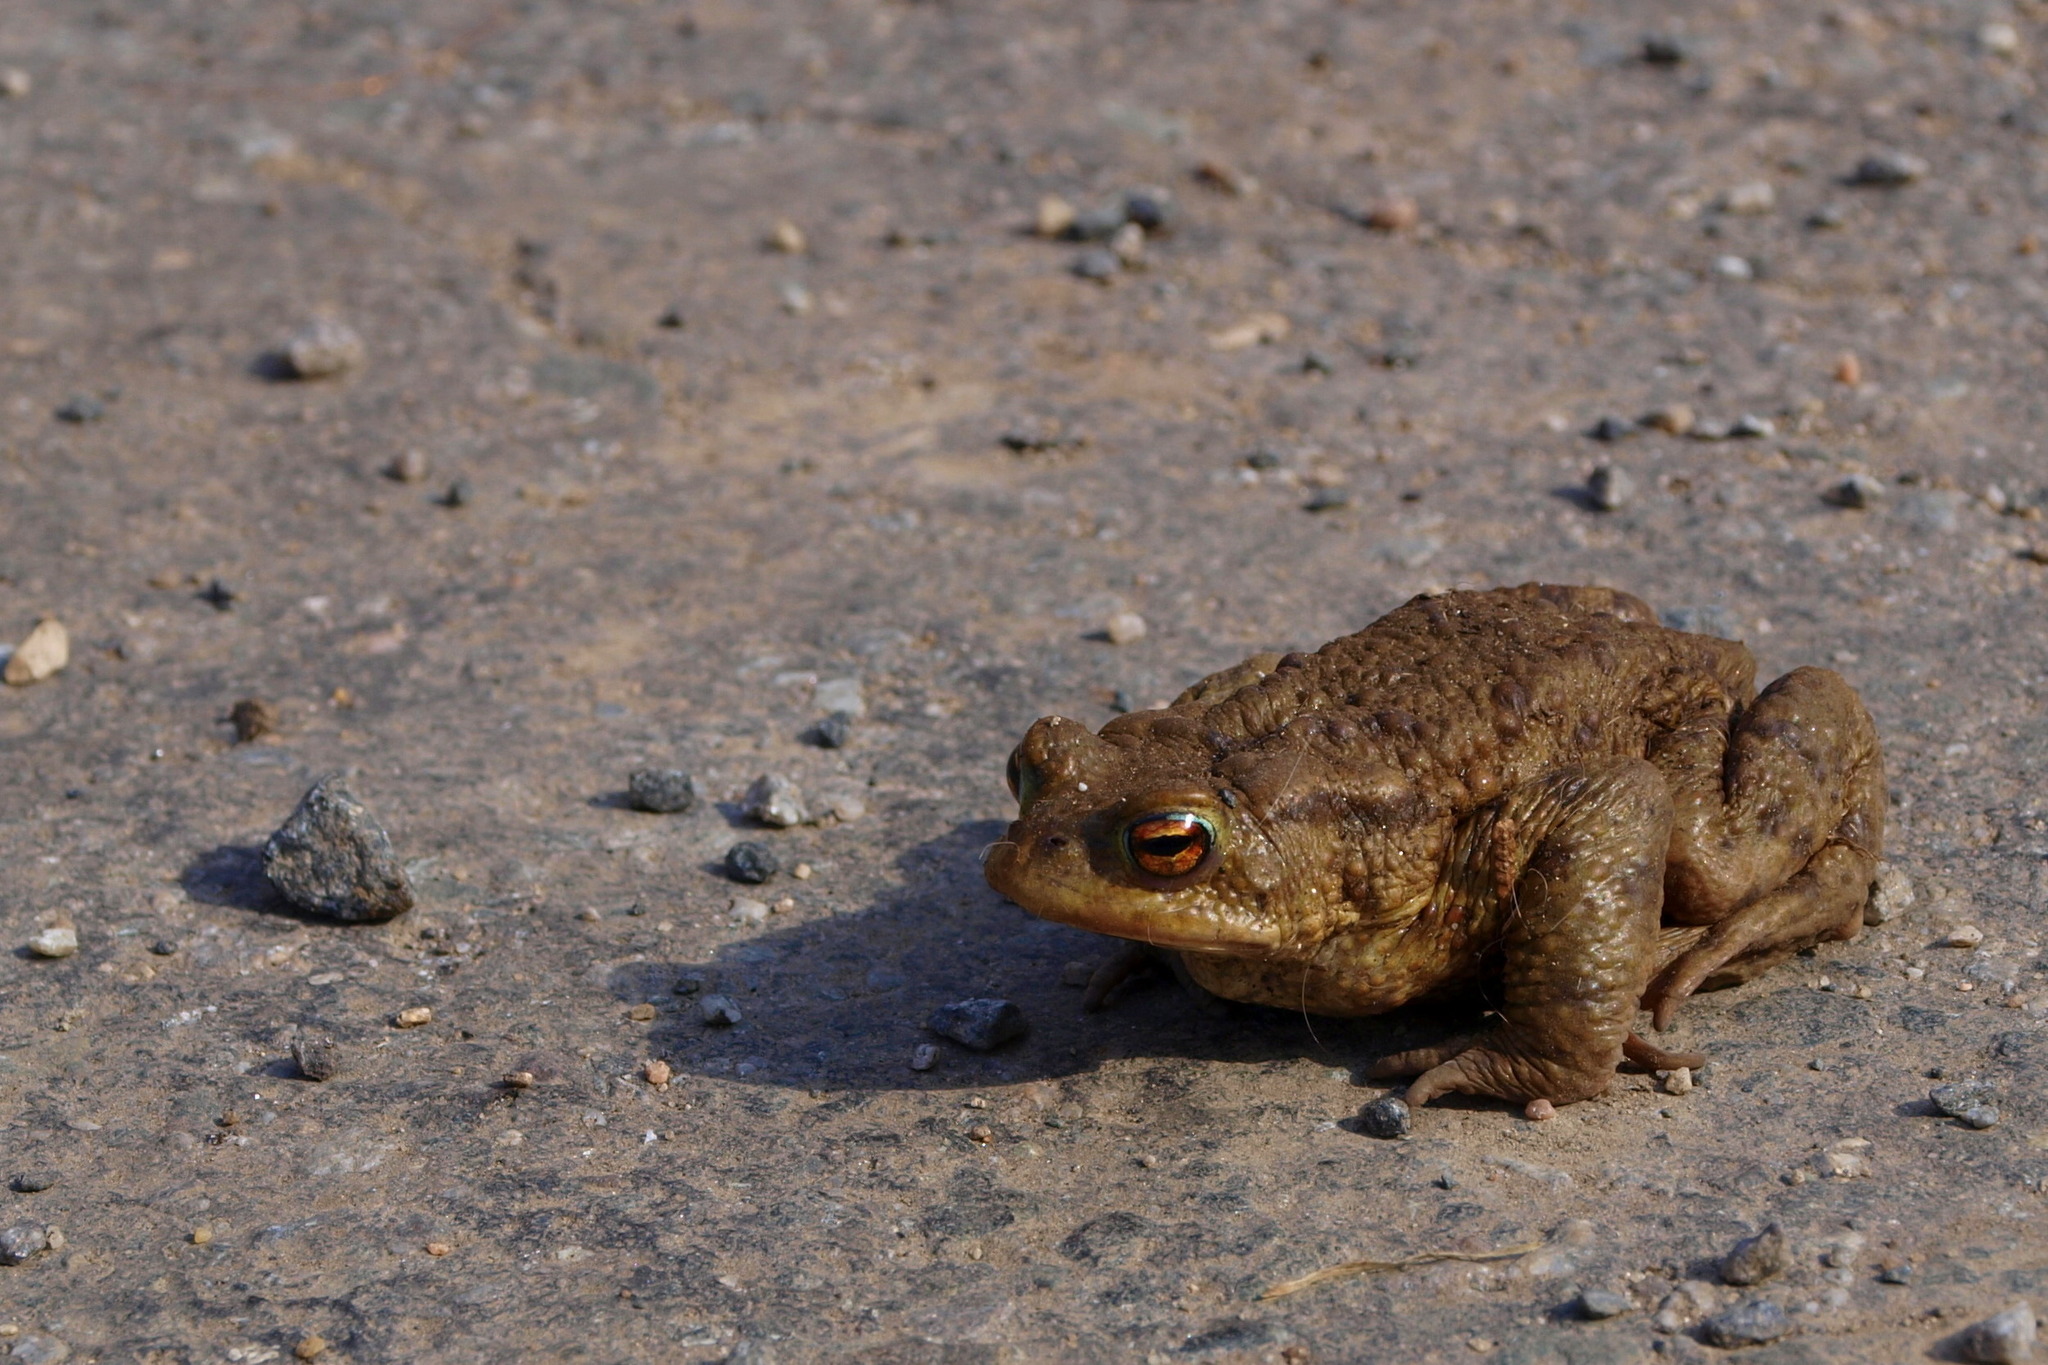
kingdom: Animalia
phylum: Chordata
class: Amphibia
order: Anura
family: Bufonidae
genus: Bufo
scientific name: Bufo bufo
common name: Common toad
